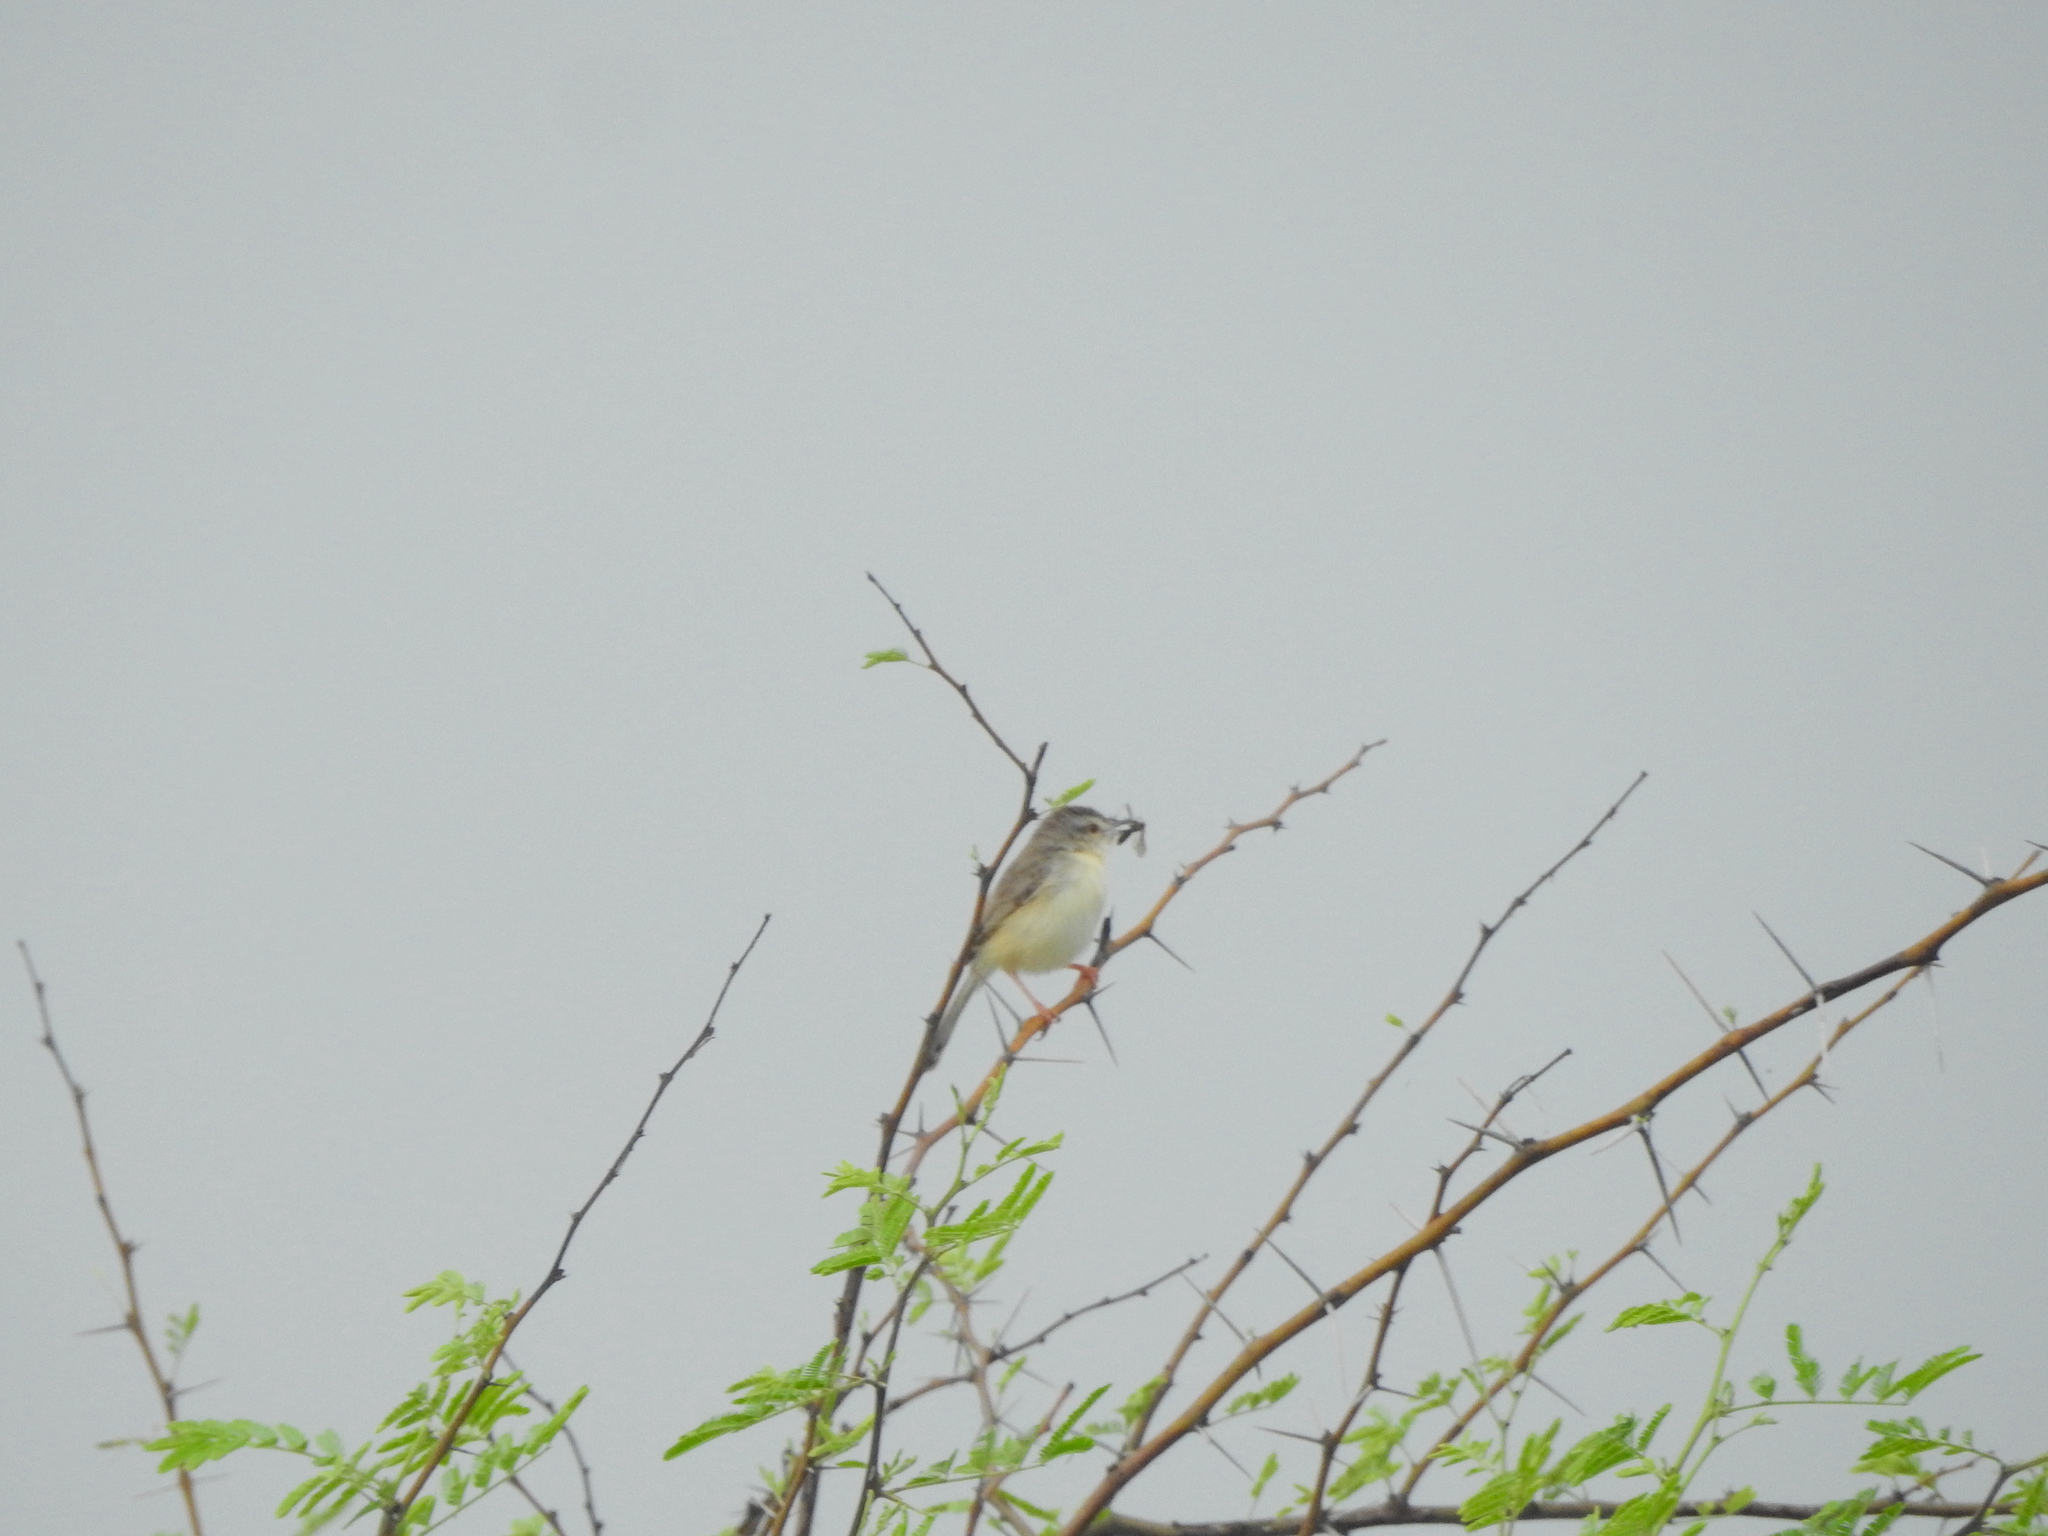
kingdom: Animalia
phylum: Chordata
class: Aves
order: Passeriformes
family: Cisticolidae
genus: Prinia
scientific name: Prinia inornata
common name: Plain prinia
